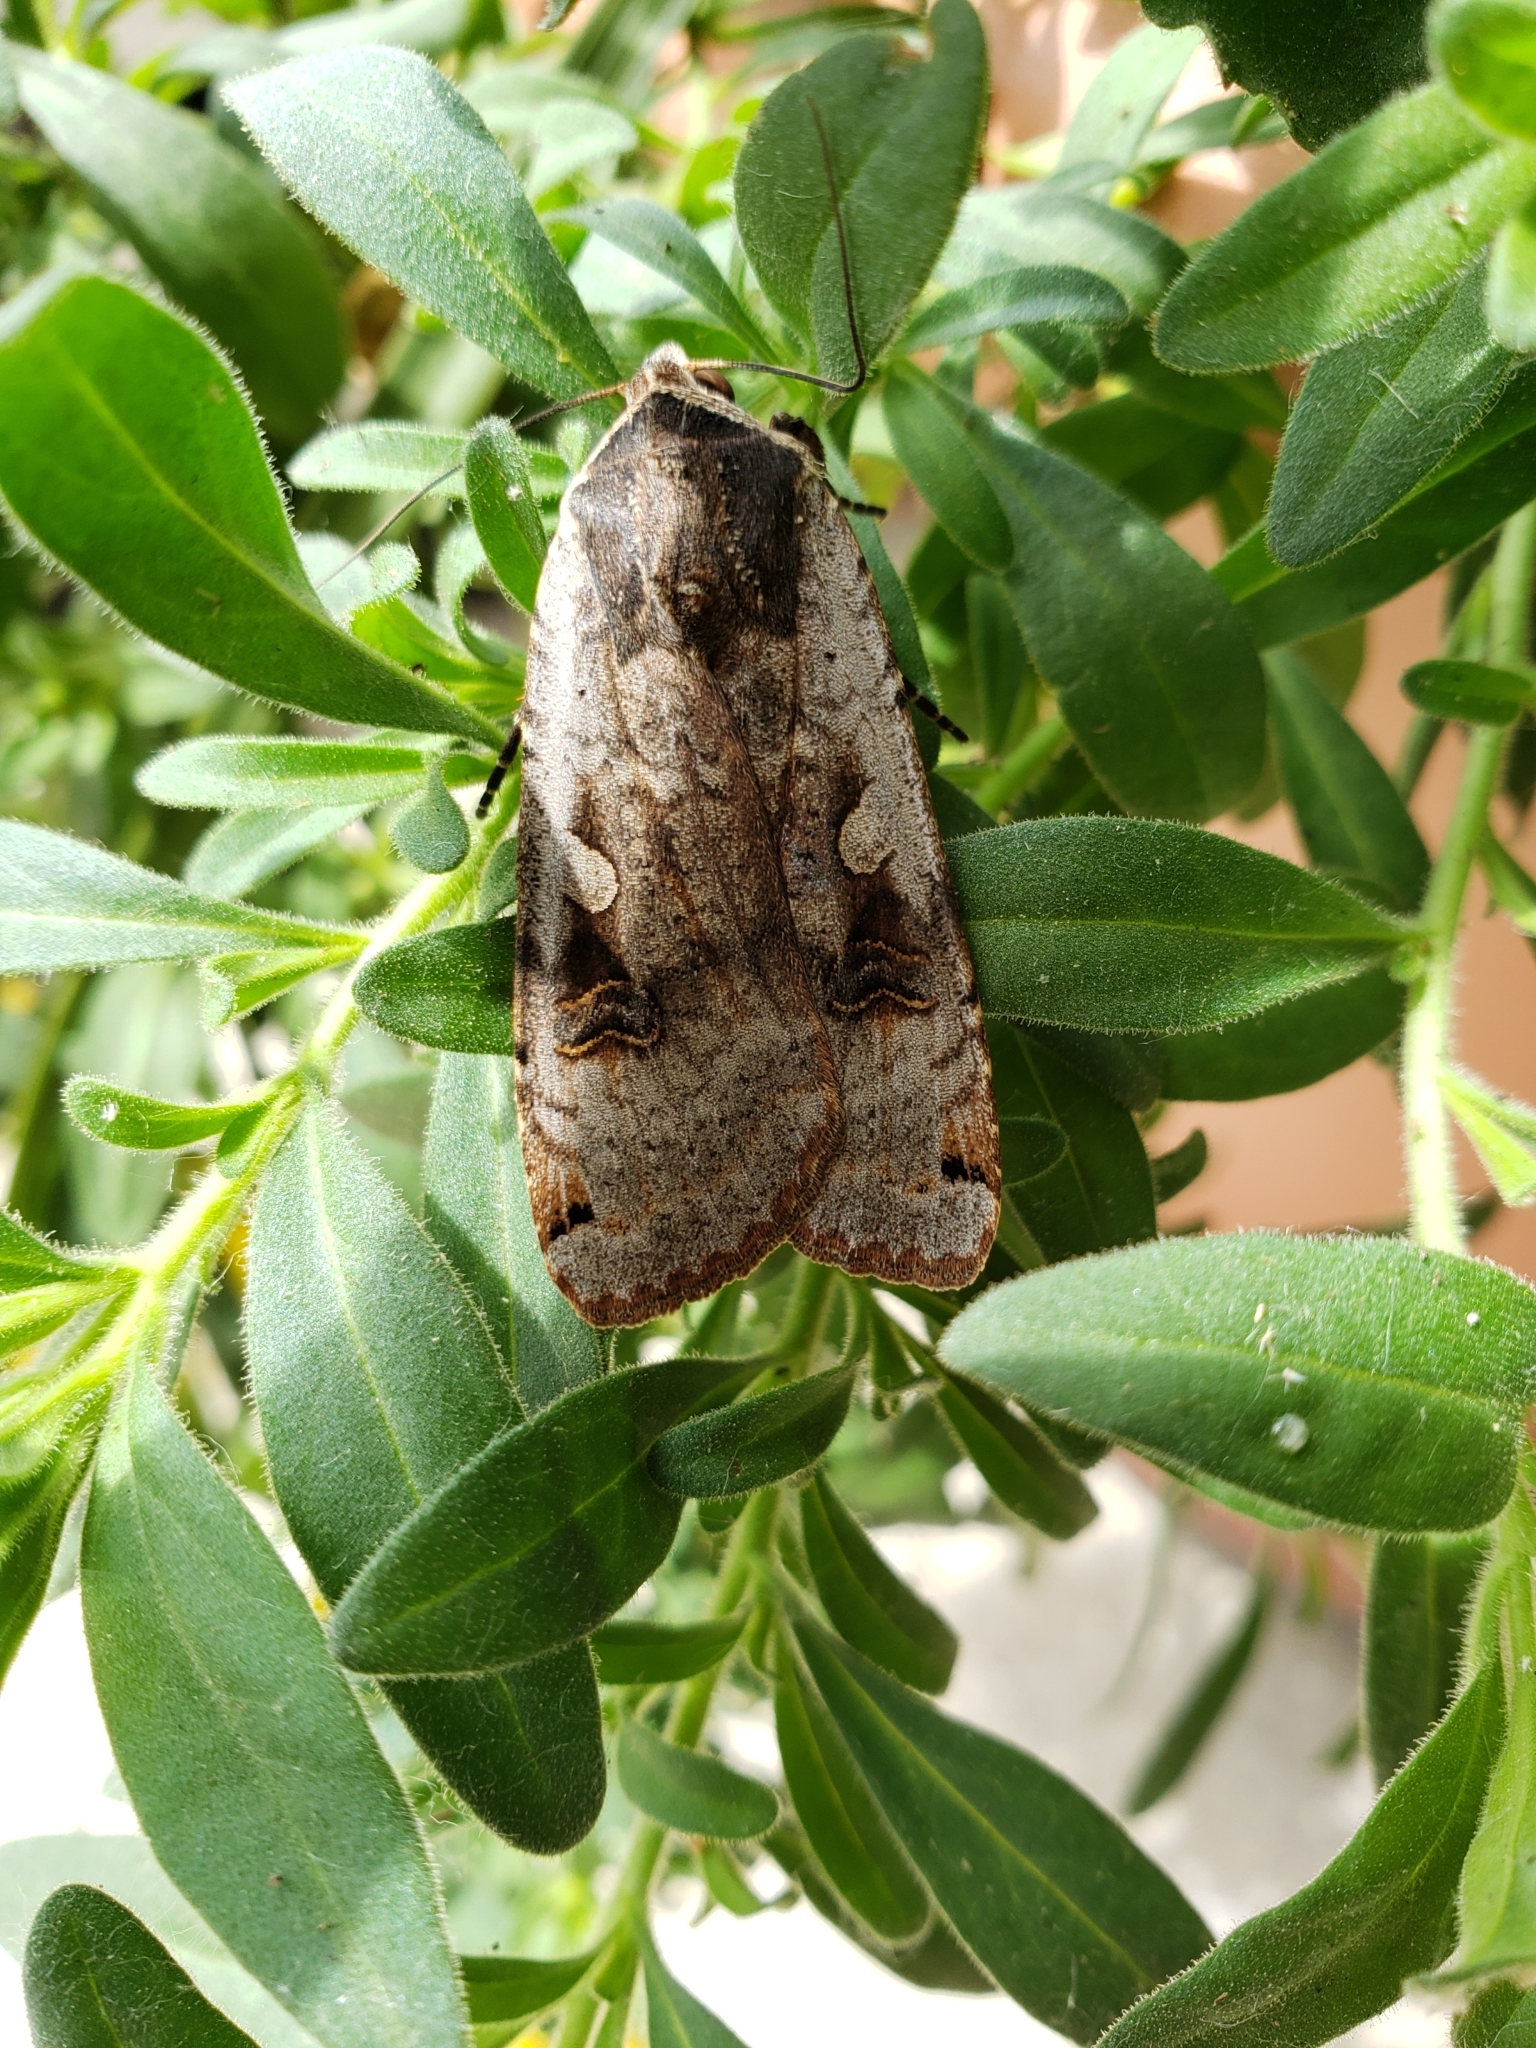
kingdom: Animalia
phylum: Arthropoda
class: Insecta
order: Lepidoptera
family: Noctuidae
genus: Noctua
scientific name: Noctua pronuba
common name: Large yellow underwing
